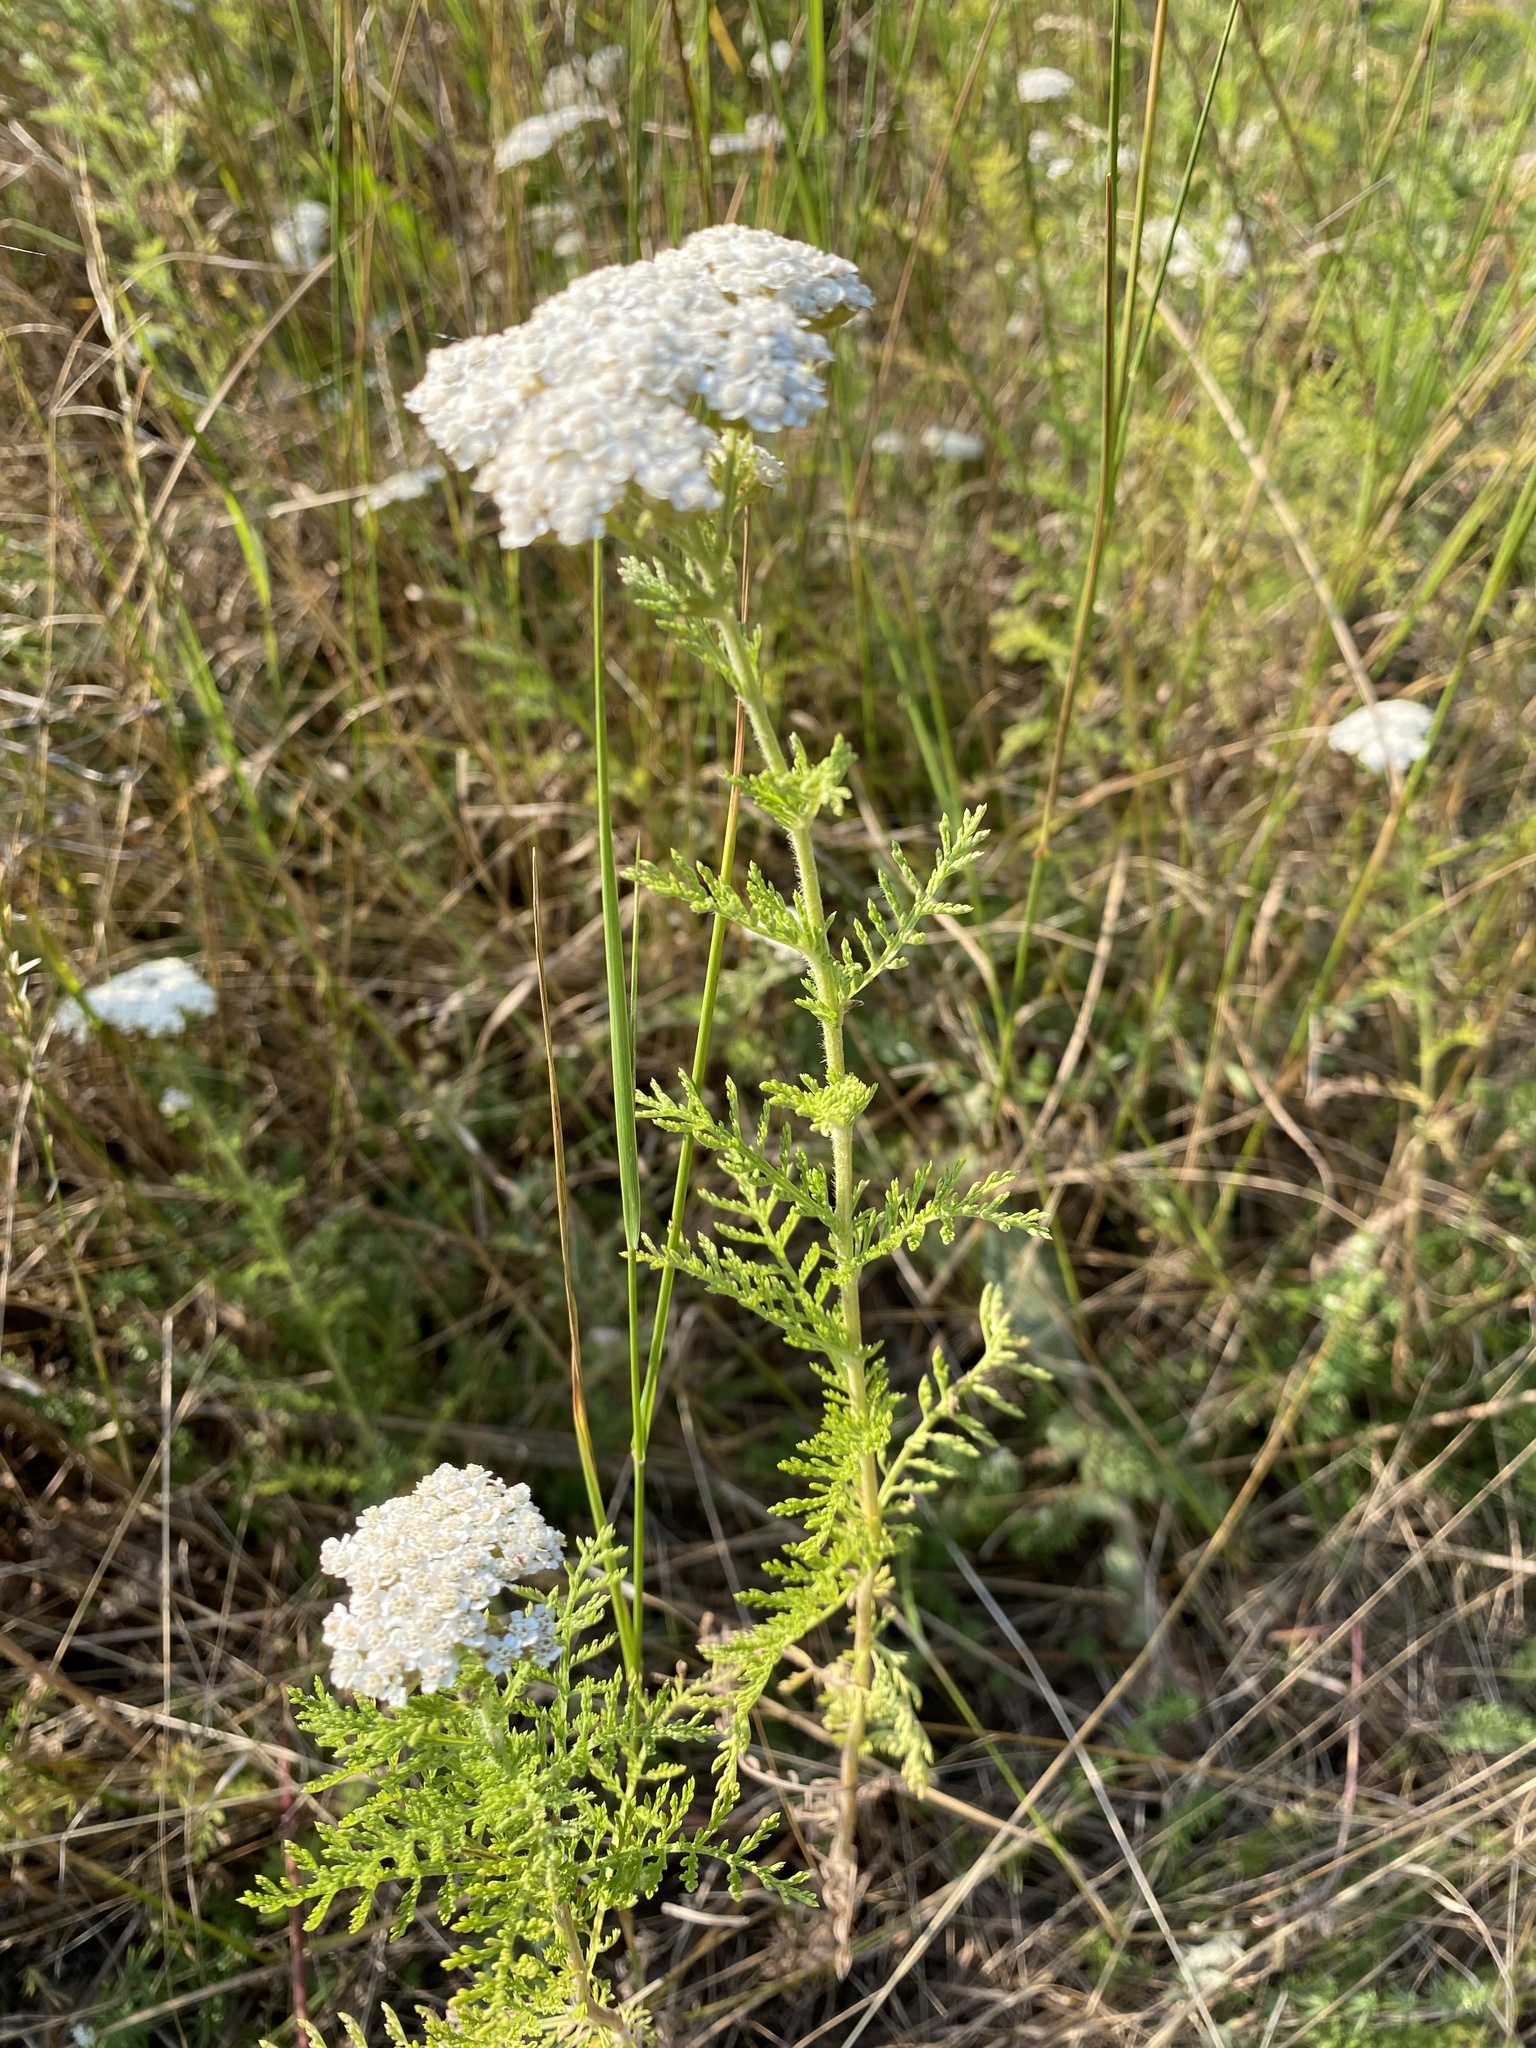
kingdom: Plantae
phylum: Tracheophyta
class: Magnoliopsida
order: Asterales
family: Asteraceae
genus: Achillea
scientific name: Achillea nobilis
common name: Noble yarrow
